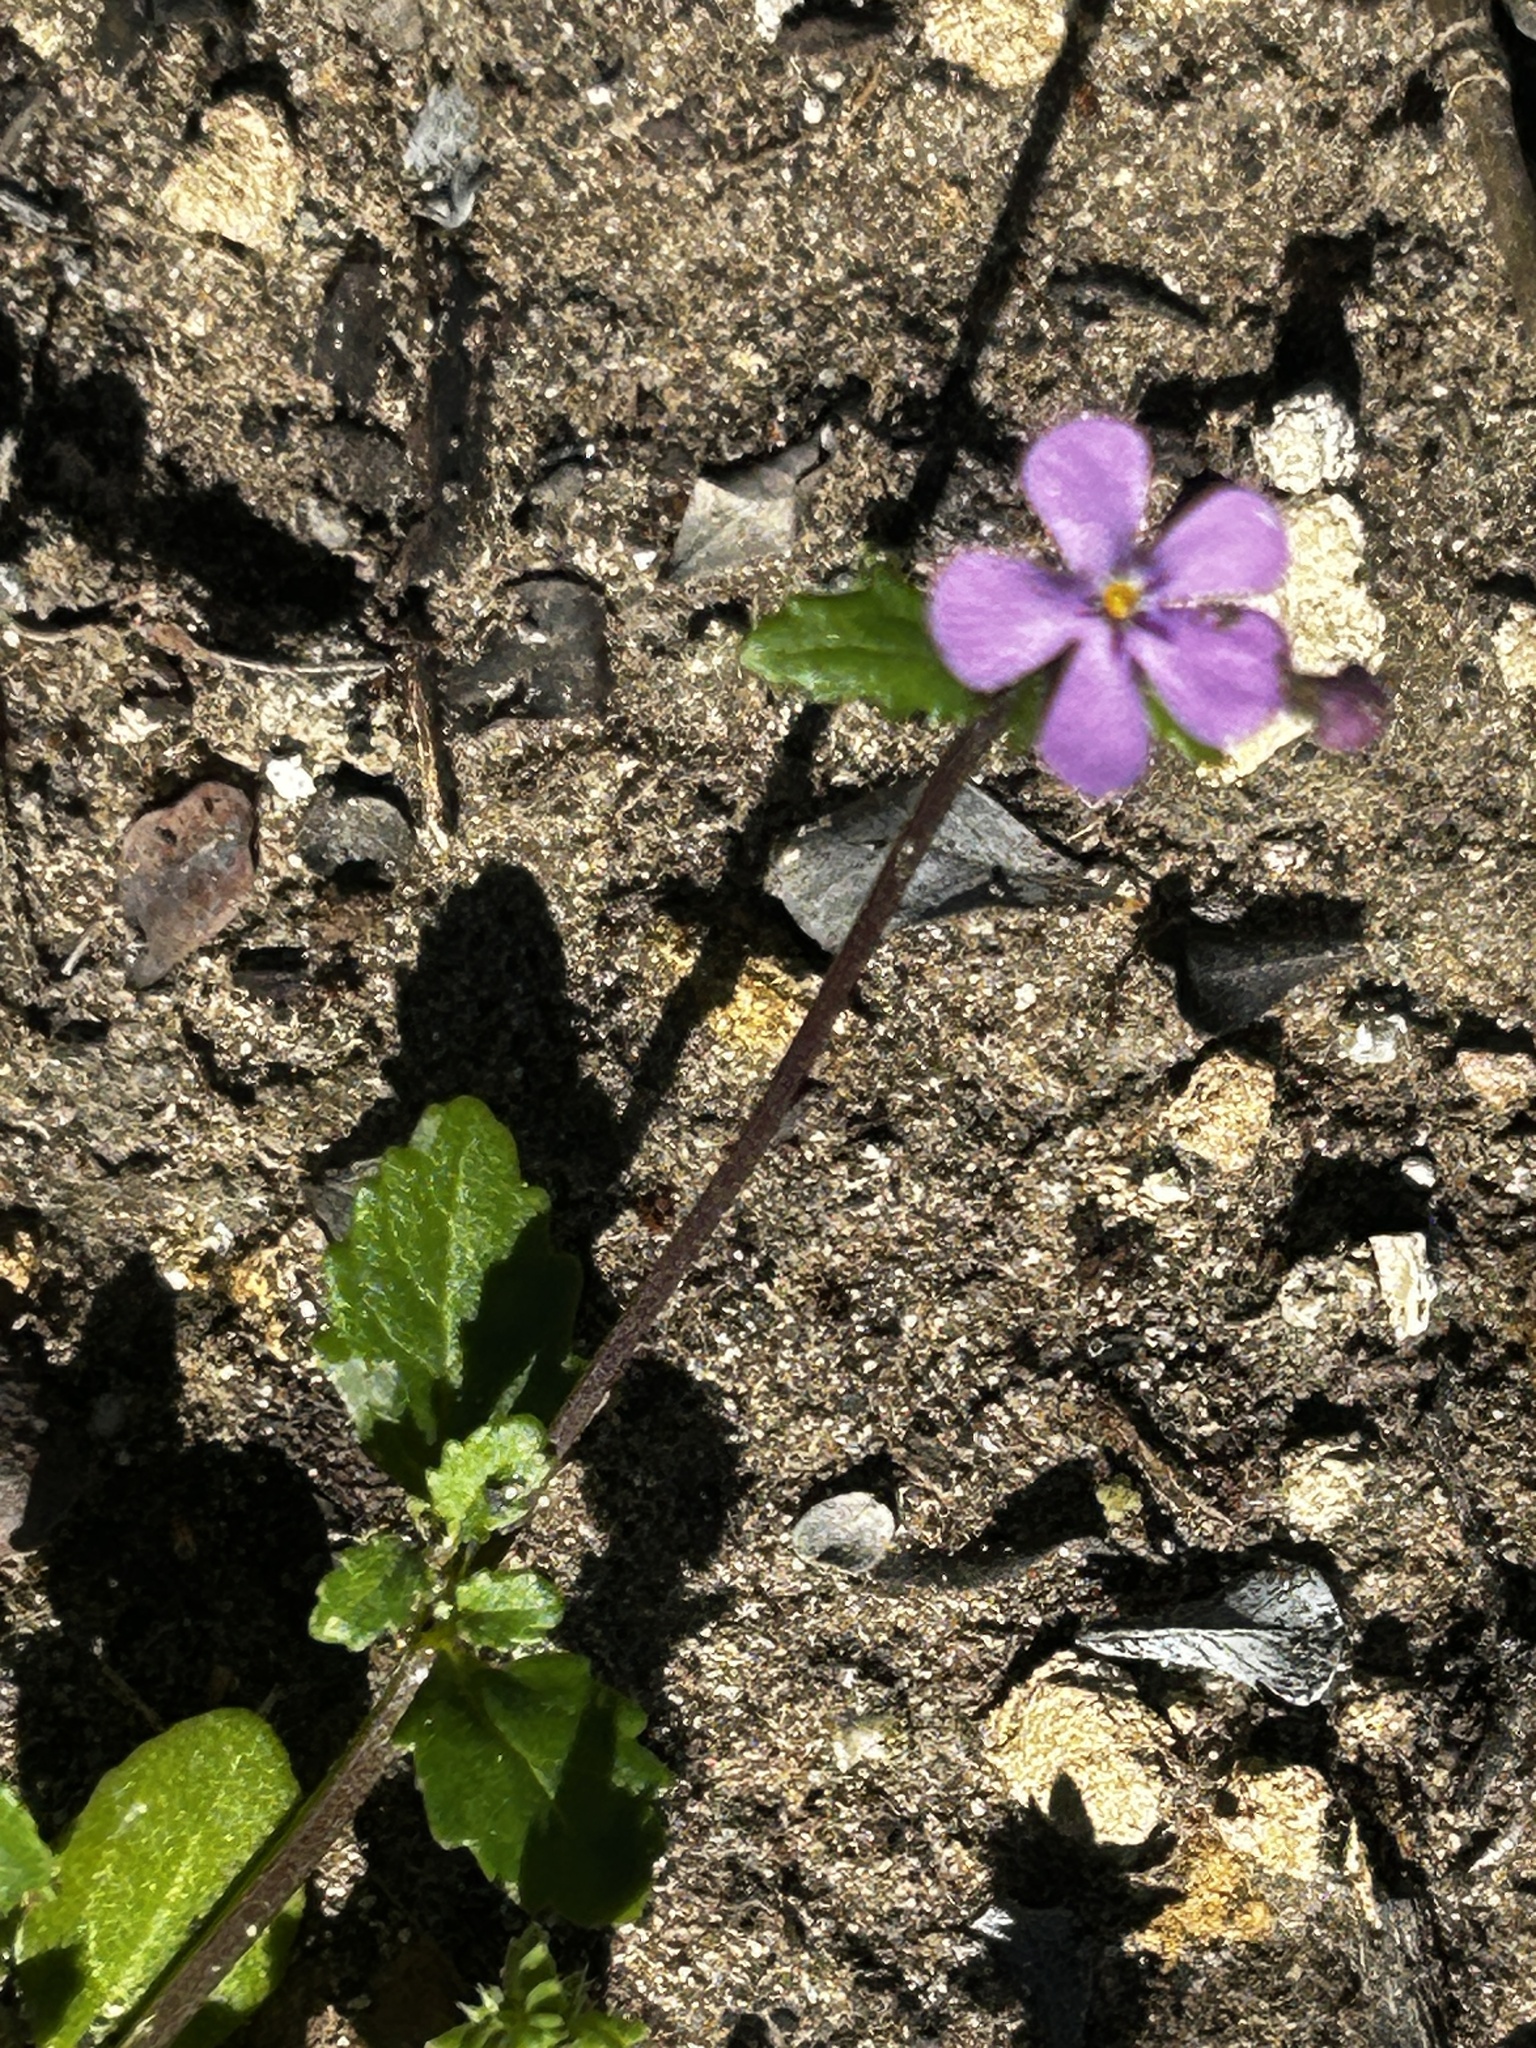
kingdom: Plantae
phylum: Tracheophyta
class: Magnoliopsida
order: Lamiales
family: Scrophulariaceae
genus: Lyperia
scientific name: Lyperia violacea
